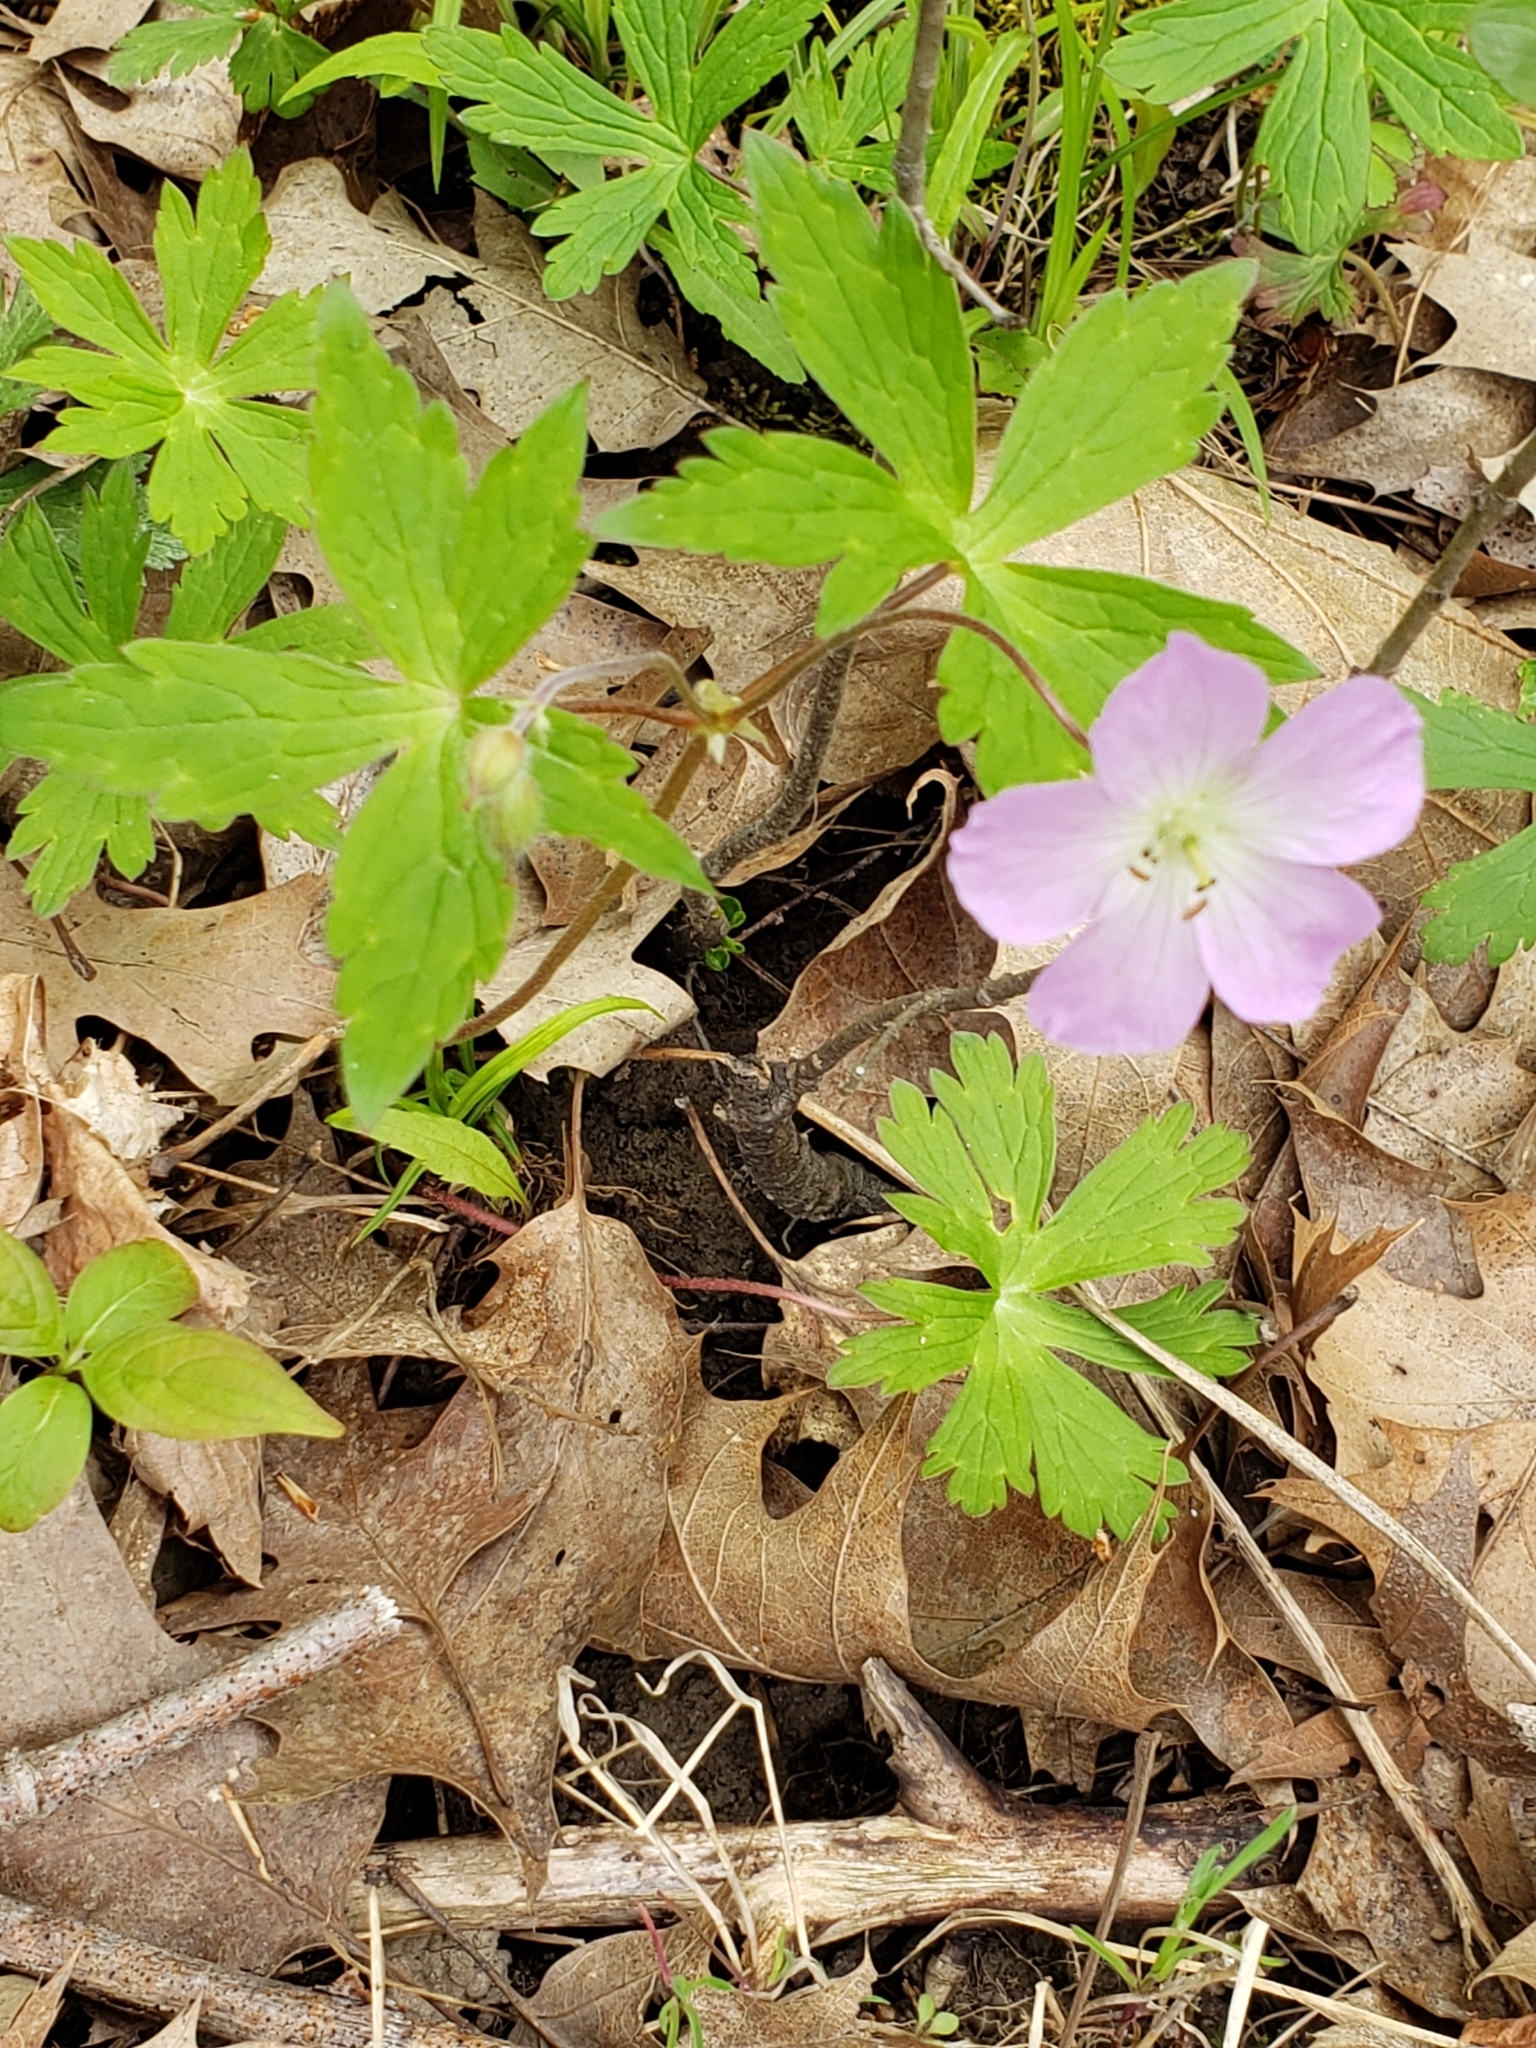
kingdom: Plantae
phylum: Tracheophyta
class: Magnoliopsida
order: Geraniales
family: Geraniaceae
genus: Geranium
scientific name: Geranium maculatum
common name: Spotted geranium
